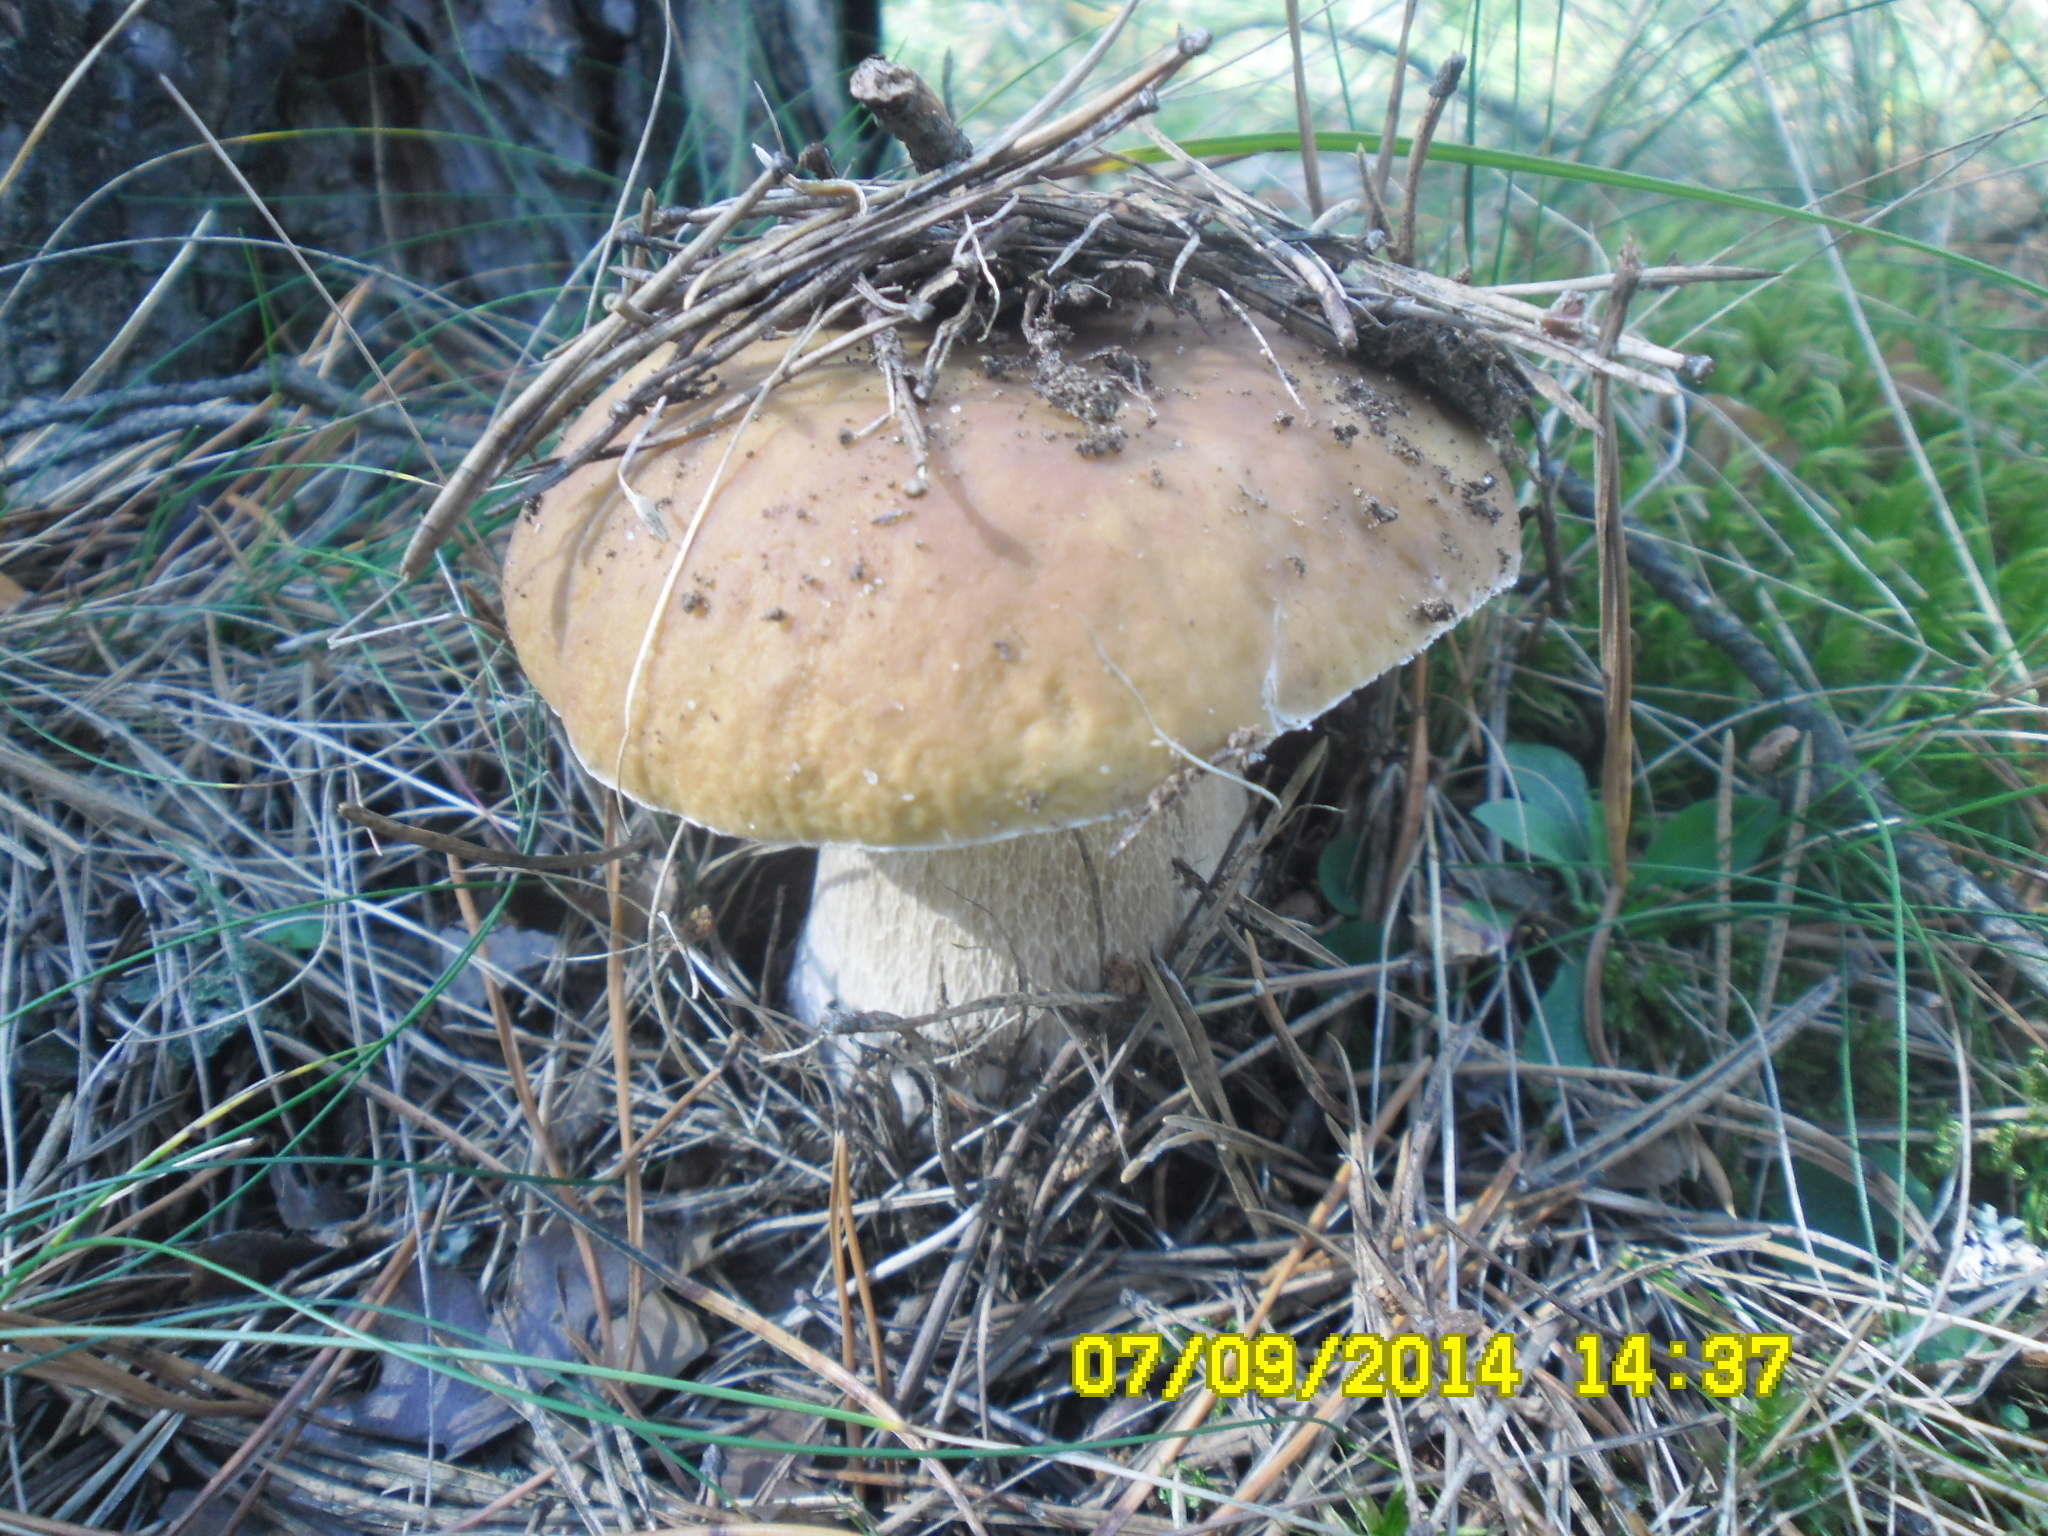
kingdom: Fungi
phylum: Basidiomycota
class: Agaricomycetes
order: Boletales
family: Boletaceae
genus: Boletus
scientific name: Boletus edulis
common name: Cep
